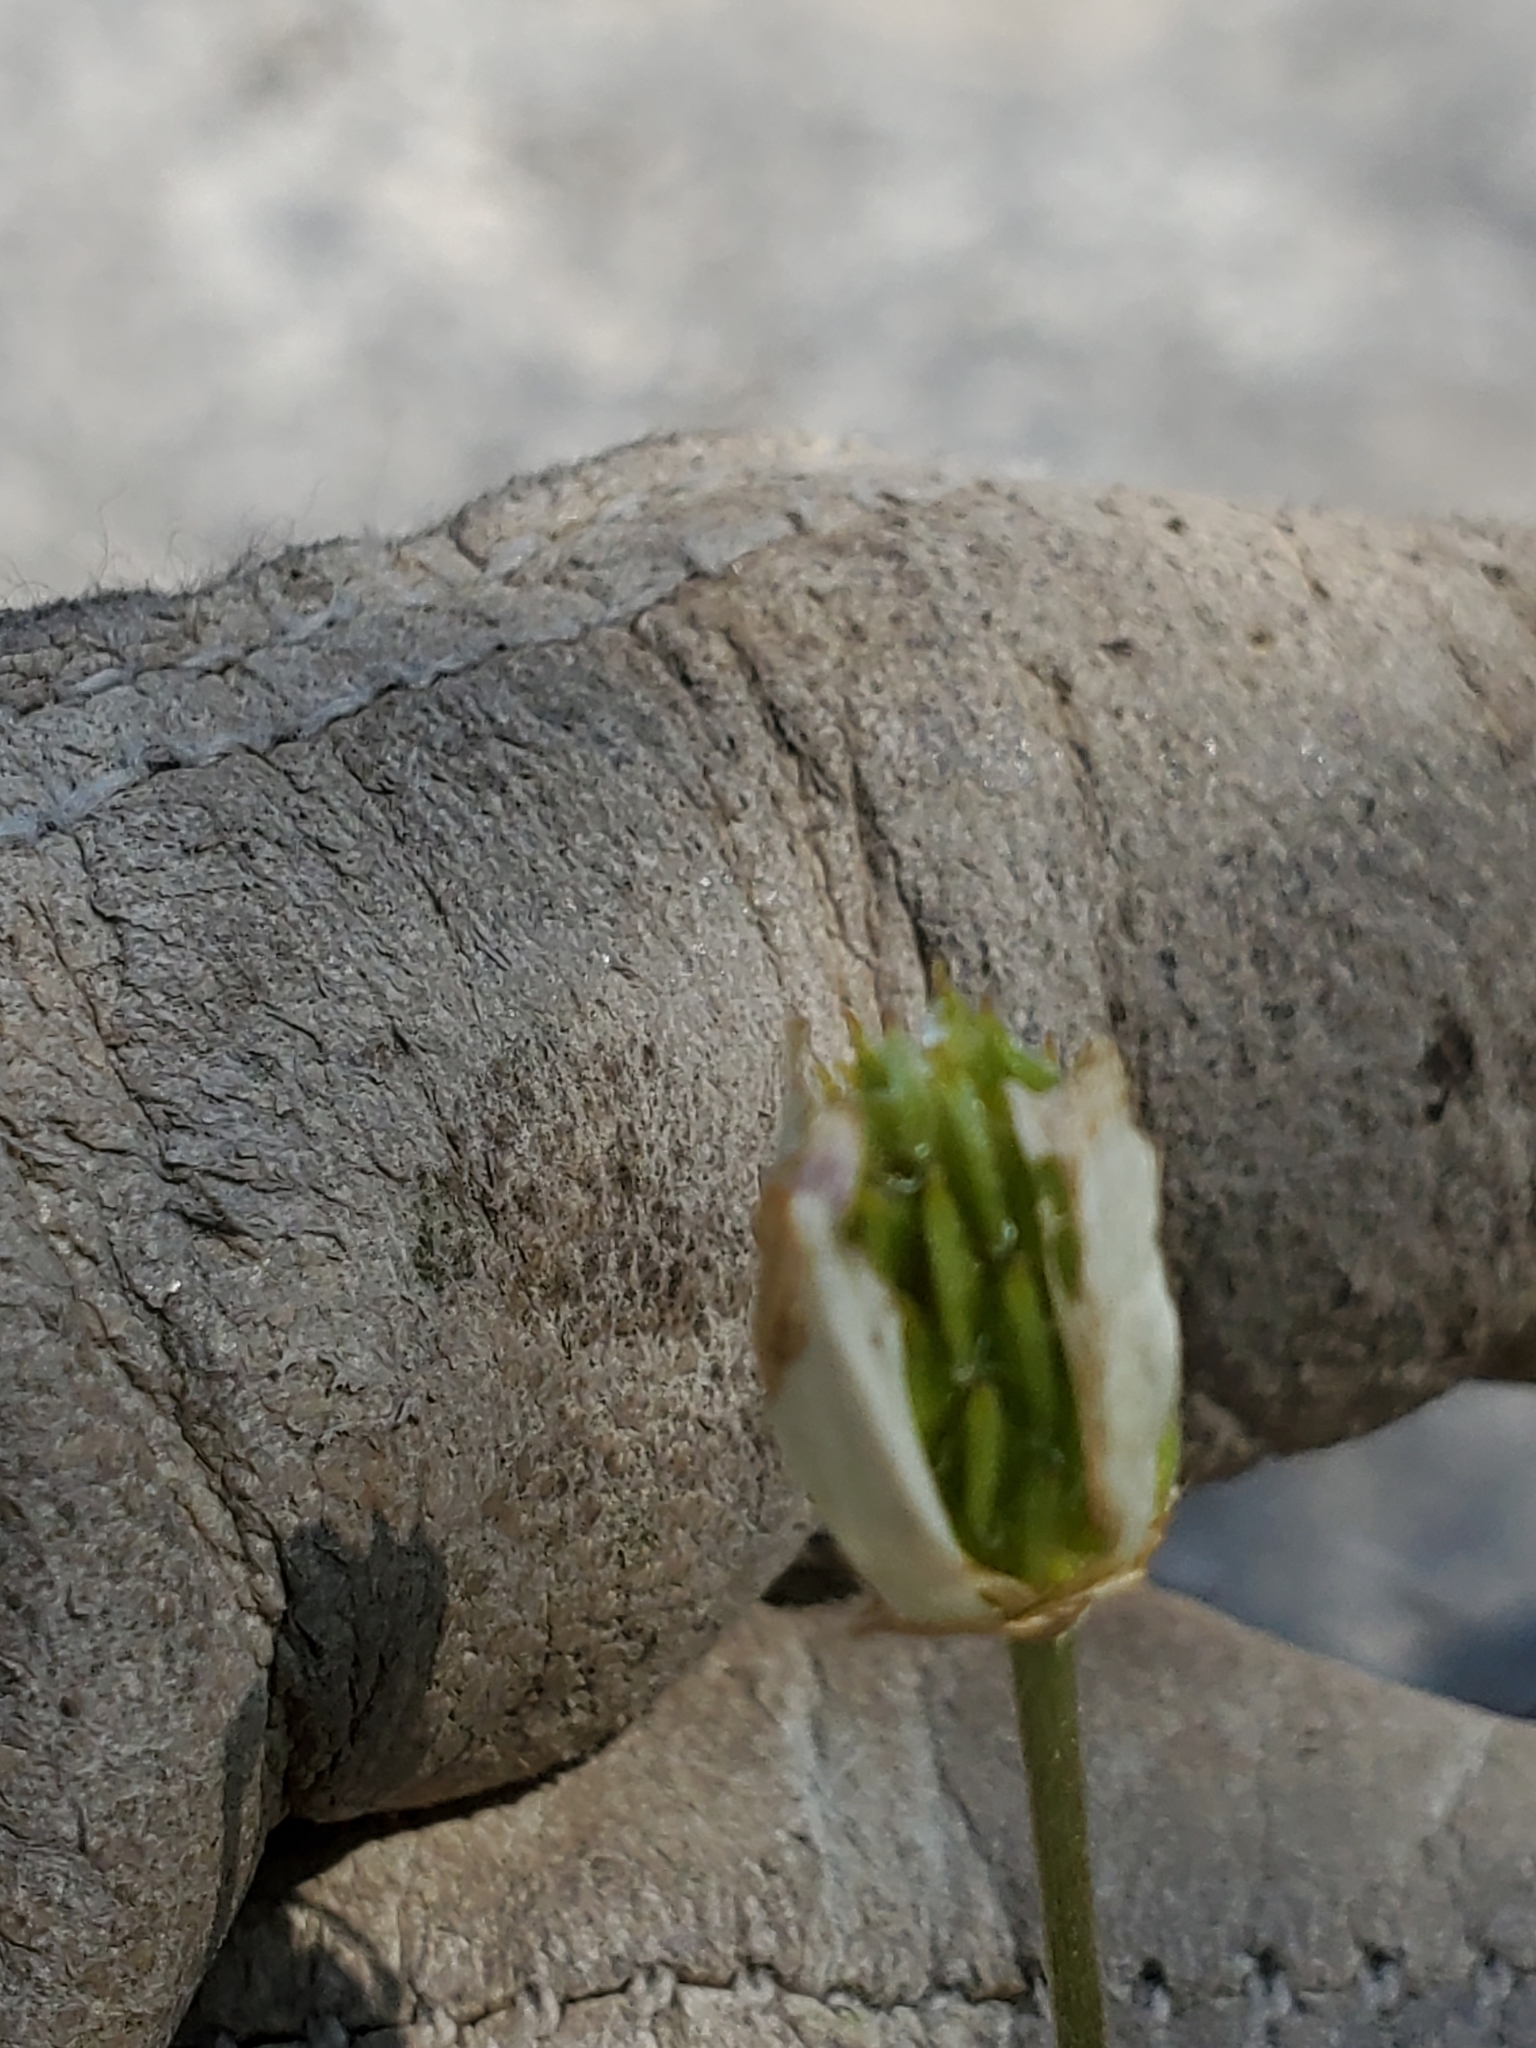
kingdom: Plantae
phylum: Tracheophyta
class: Magnoliopsida
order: Ranunculales
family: Ranunculaceae
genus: Anemone
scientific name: Anemone edwardsiana
